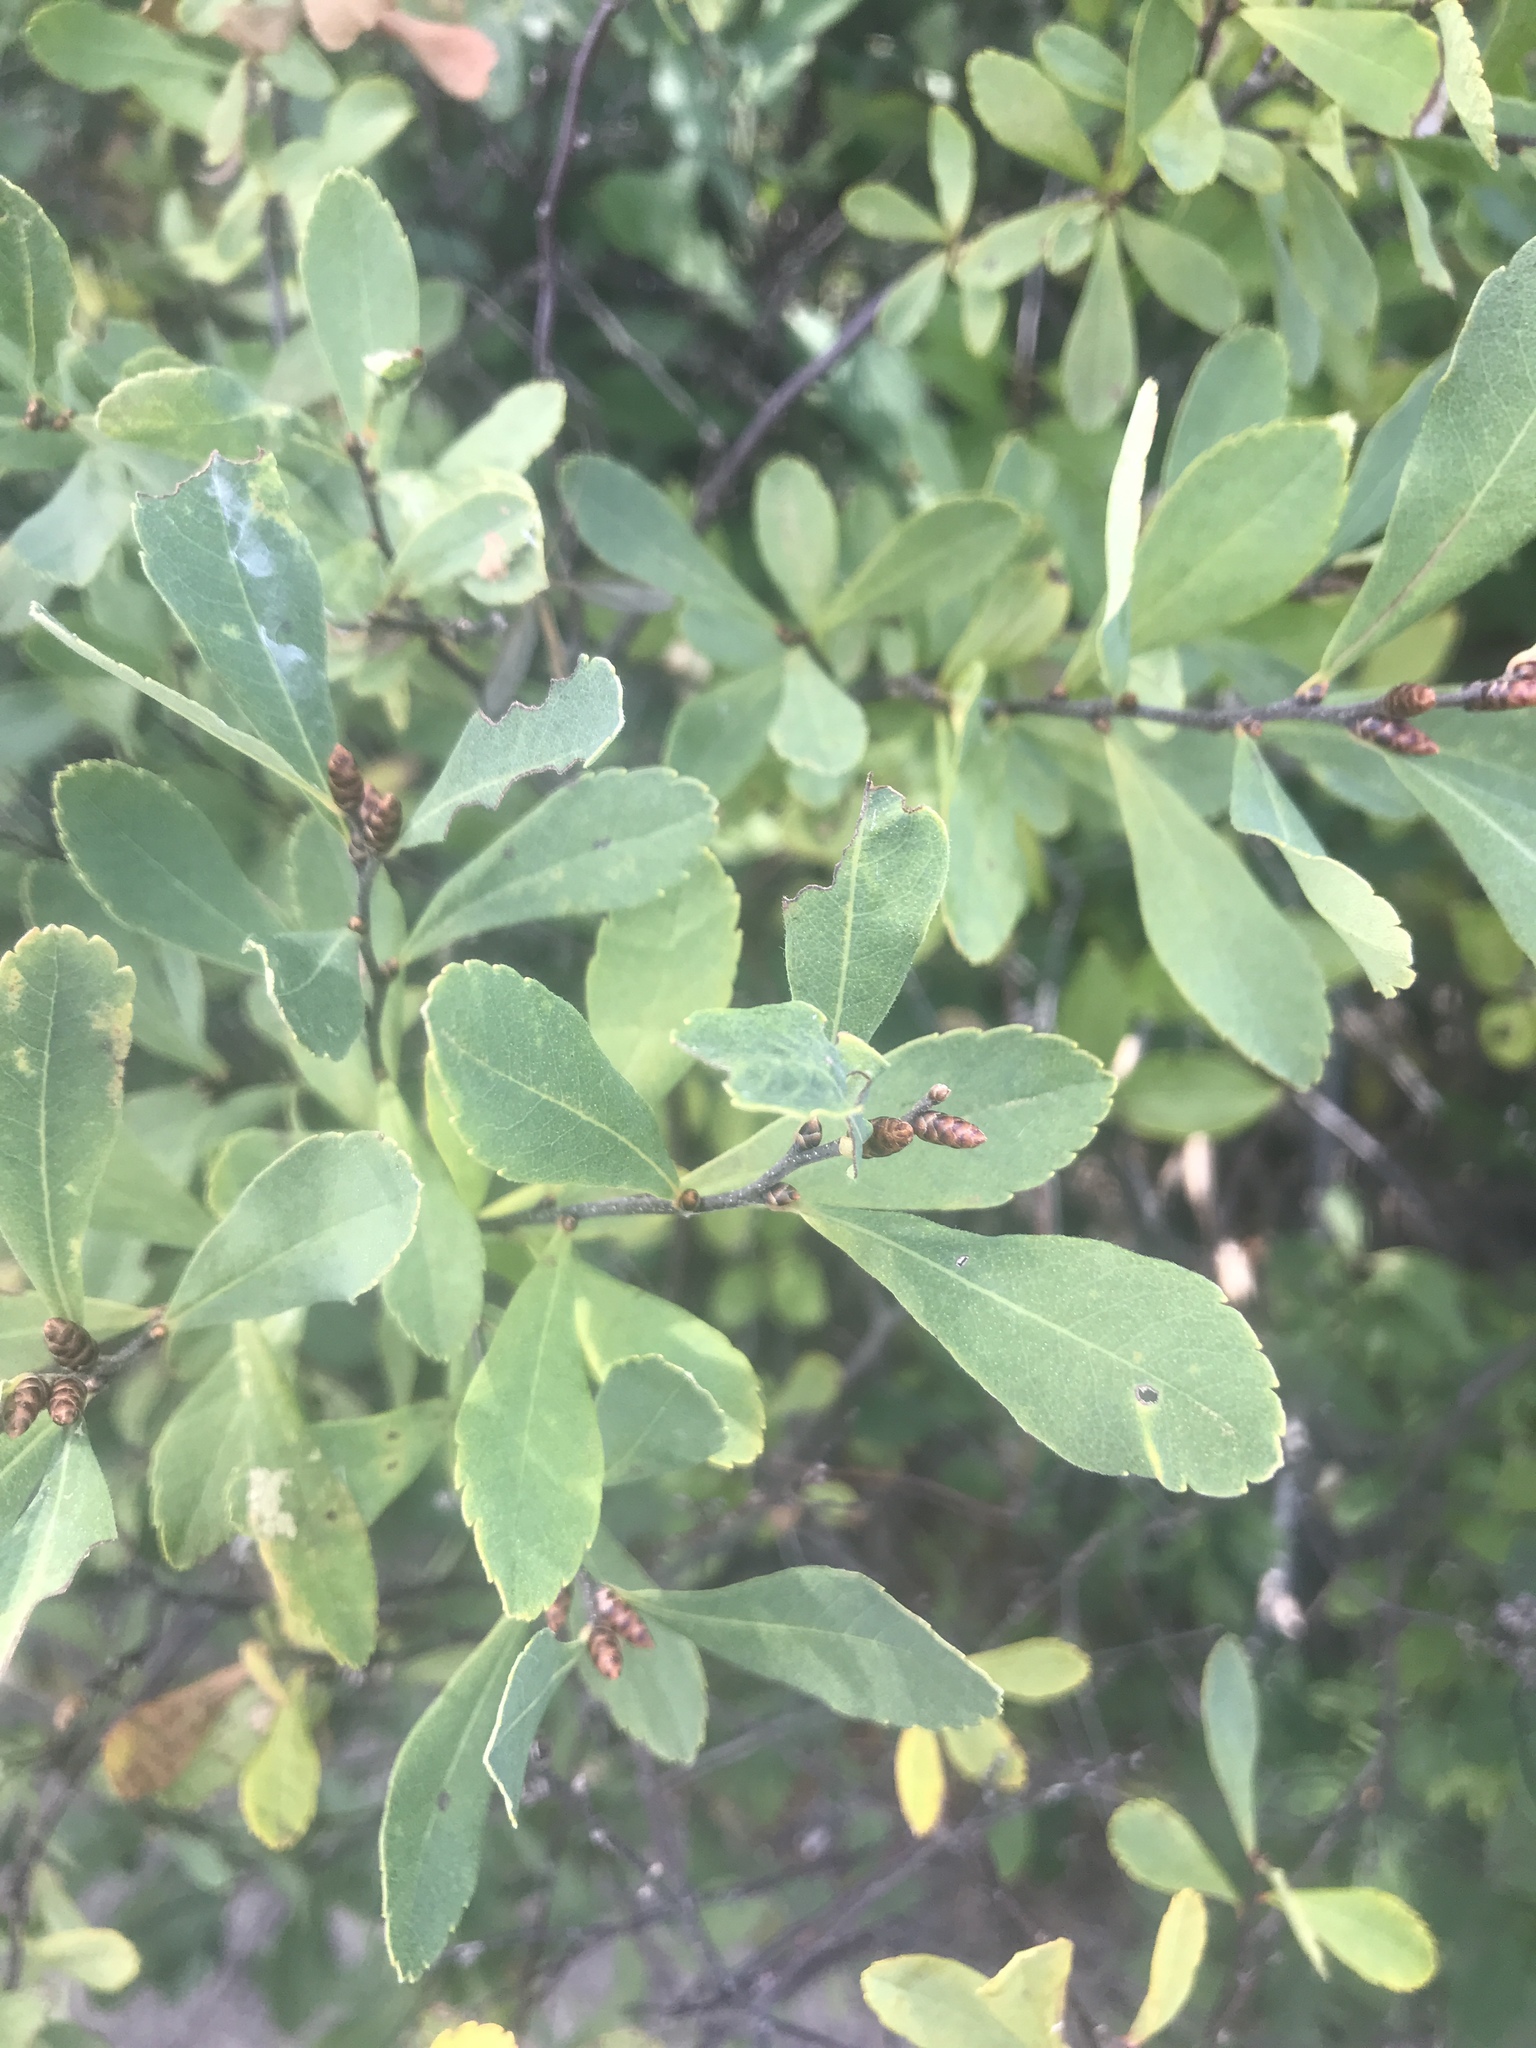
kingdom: Plantae
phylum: Tracheophyta
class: Magnoliopsida
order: Fagales
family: Myricaceae
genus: Myrica
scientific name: Myrica gale
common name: Sweet gale
